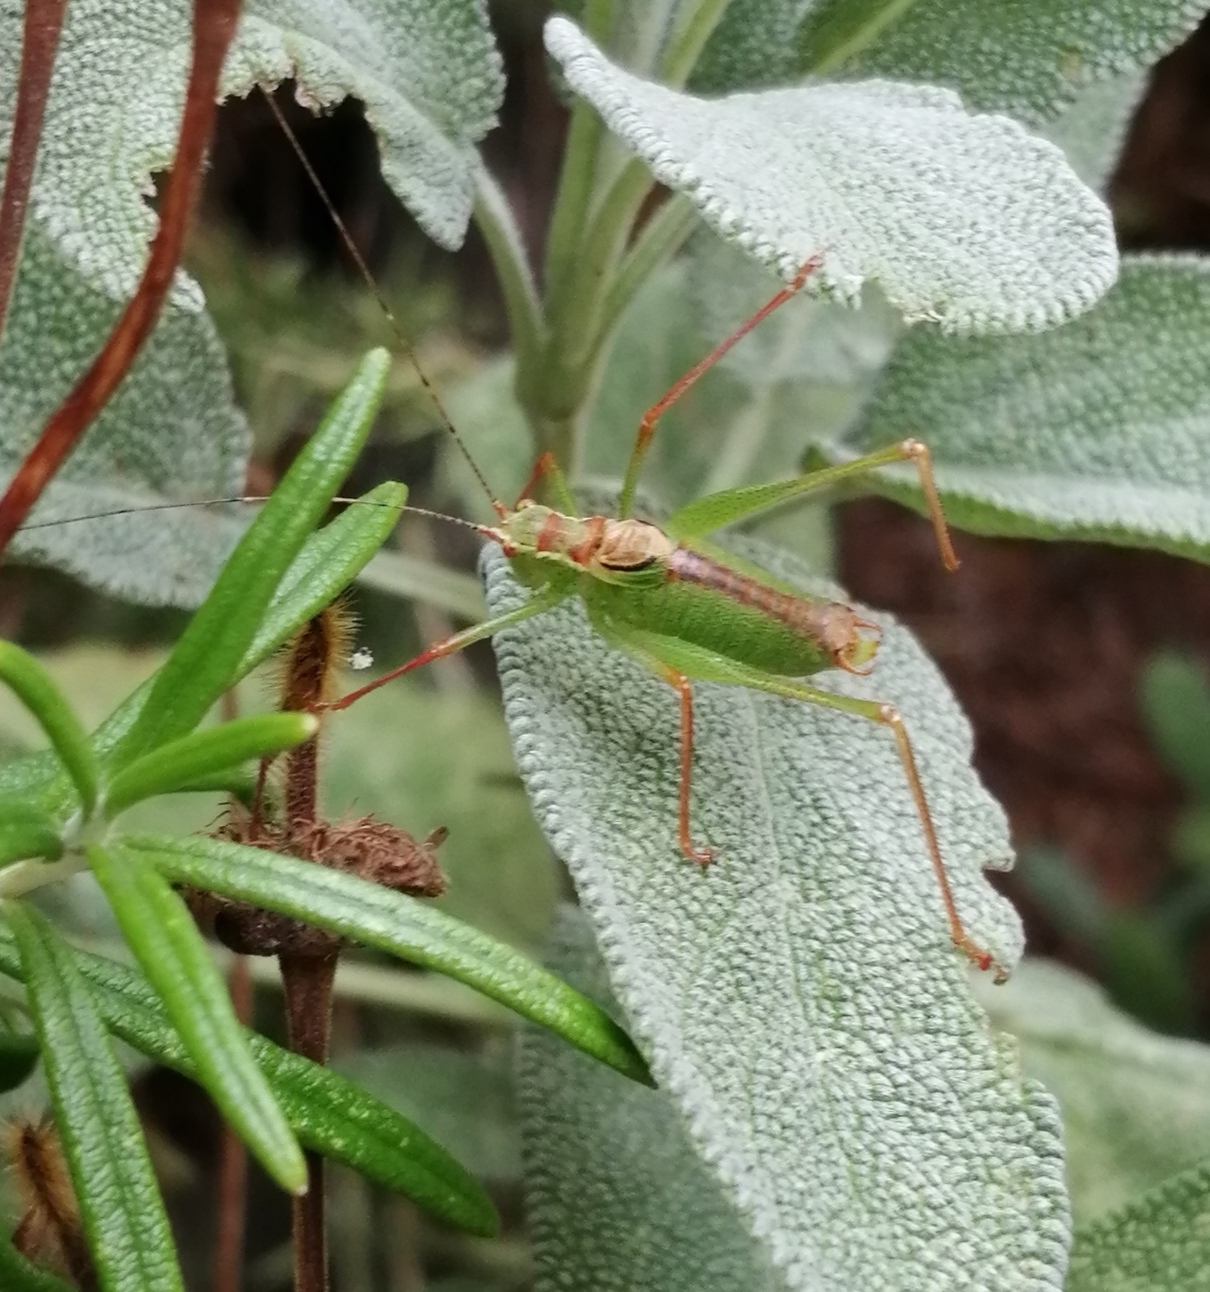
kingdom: Animalia
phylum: Arthropoda
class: Insecta
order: Orthoptera
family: Tettigoniidae
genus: Leptophyes
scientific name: Leptophyes punctatissima
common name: Speckled bush-cricket
